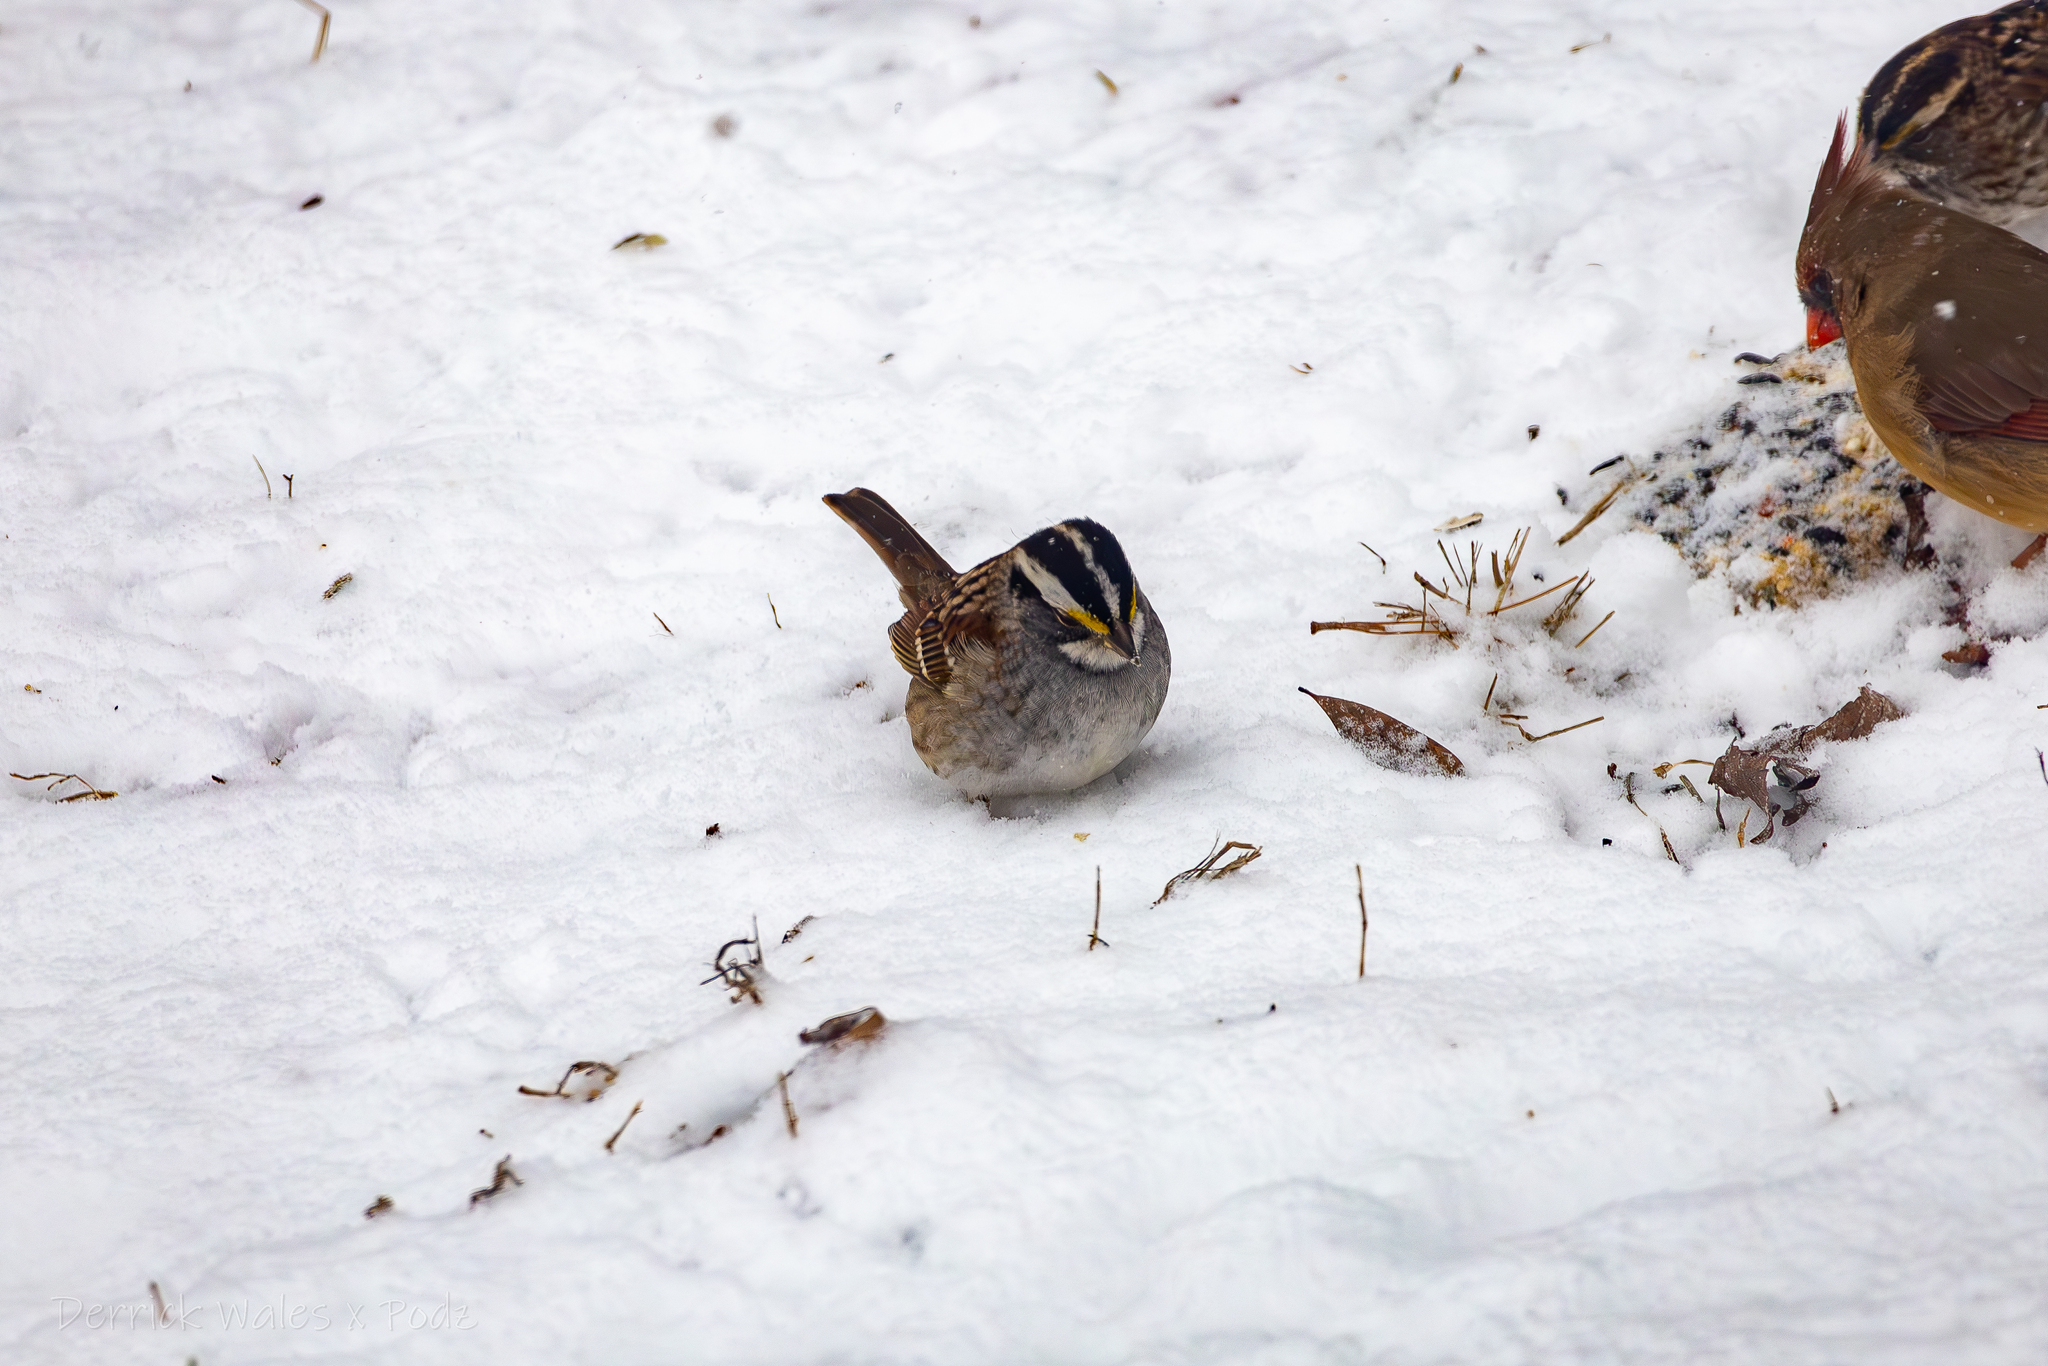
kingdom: Animalia
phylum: Chordata
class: Aves
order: Passeriformes
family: Passerellidae
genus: Zonotrichia
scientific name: Zonotrichia albicollis
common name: White-throated sparrow
